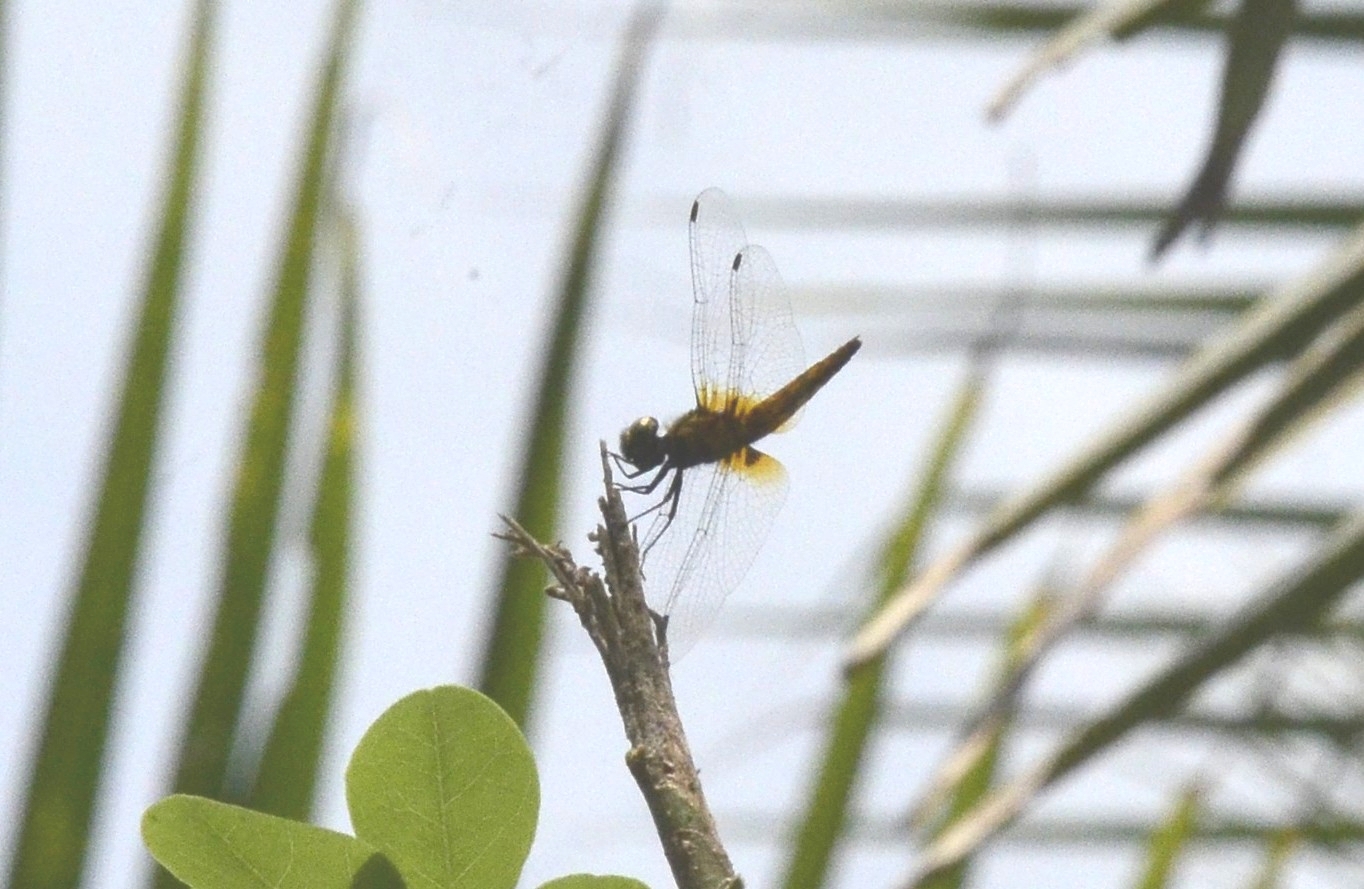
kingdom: Animalia
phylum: Arthropoda
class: Insecta
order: Odonata
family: Libellulidae
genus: Aethriamanta
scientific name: Aethriamanta brevipennis
